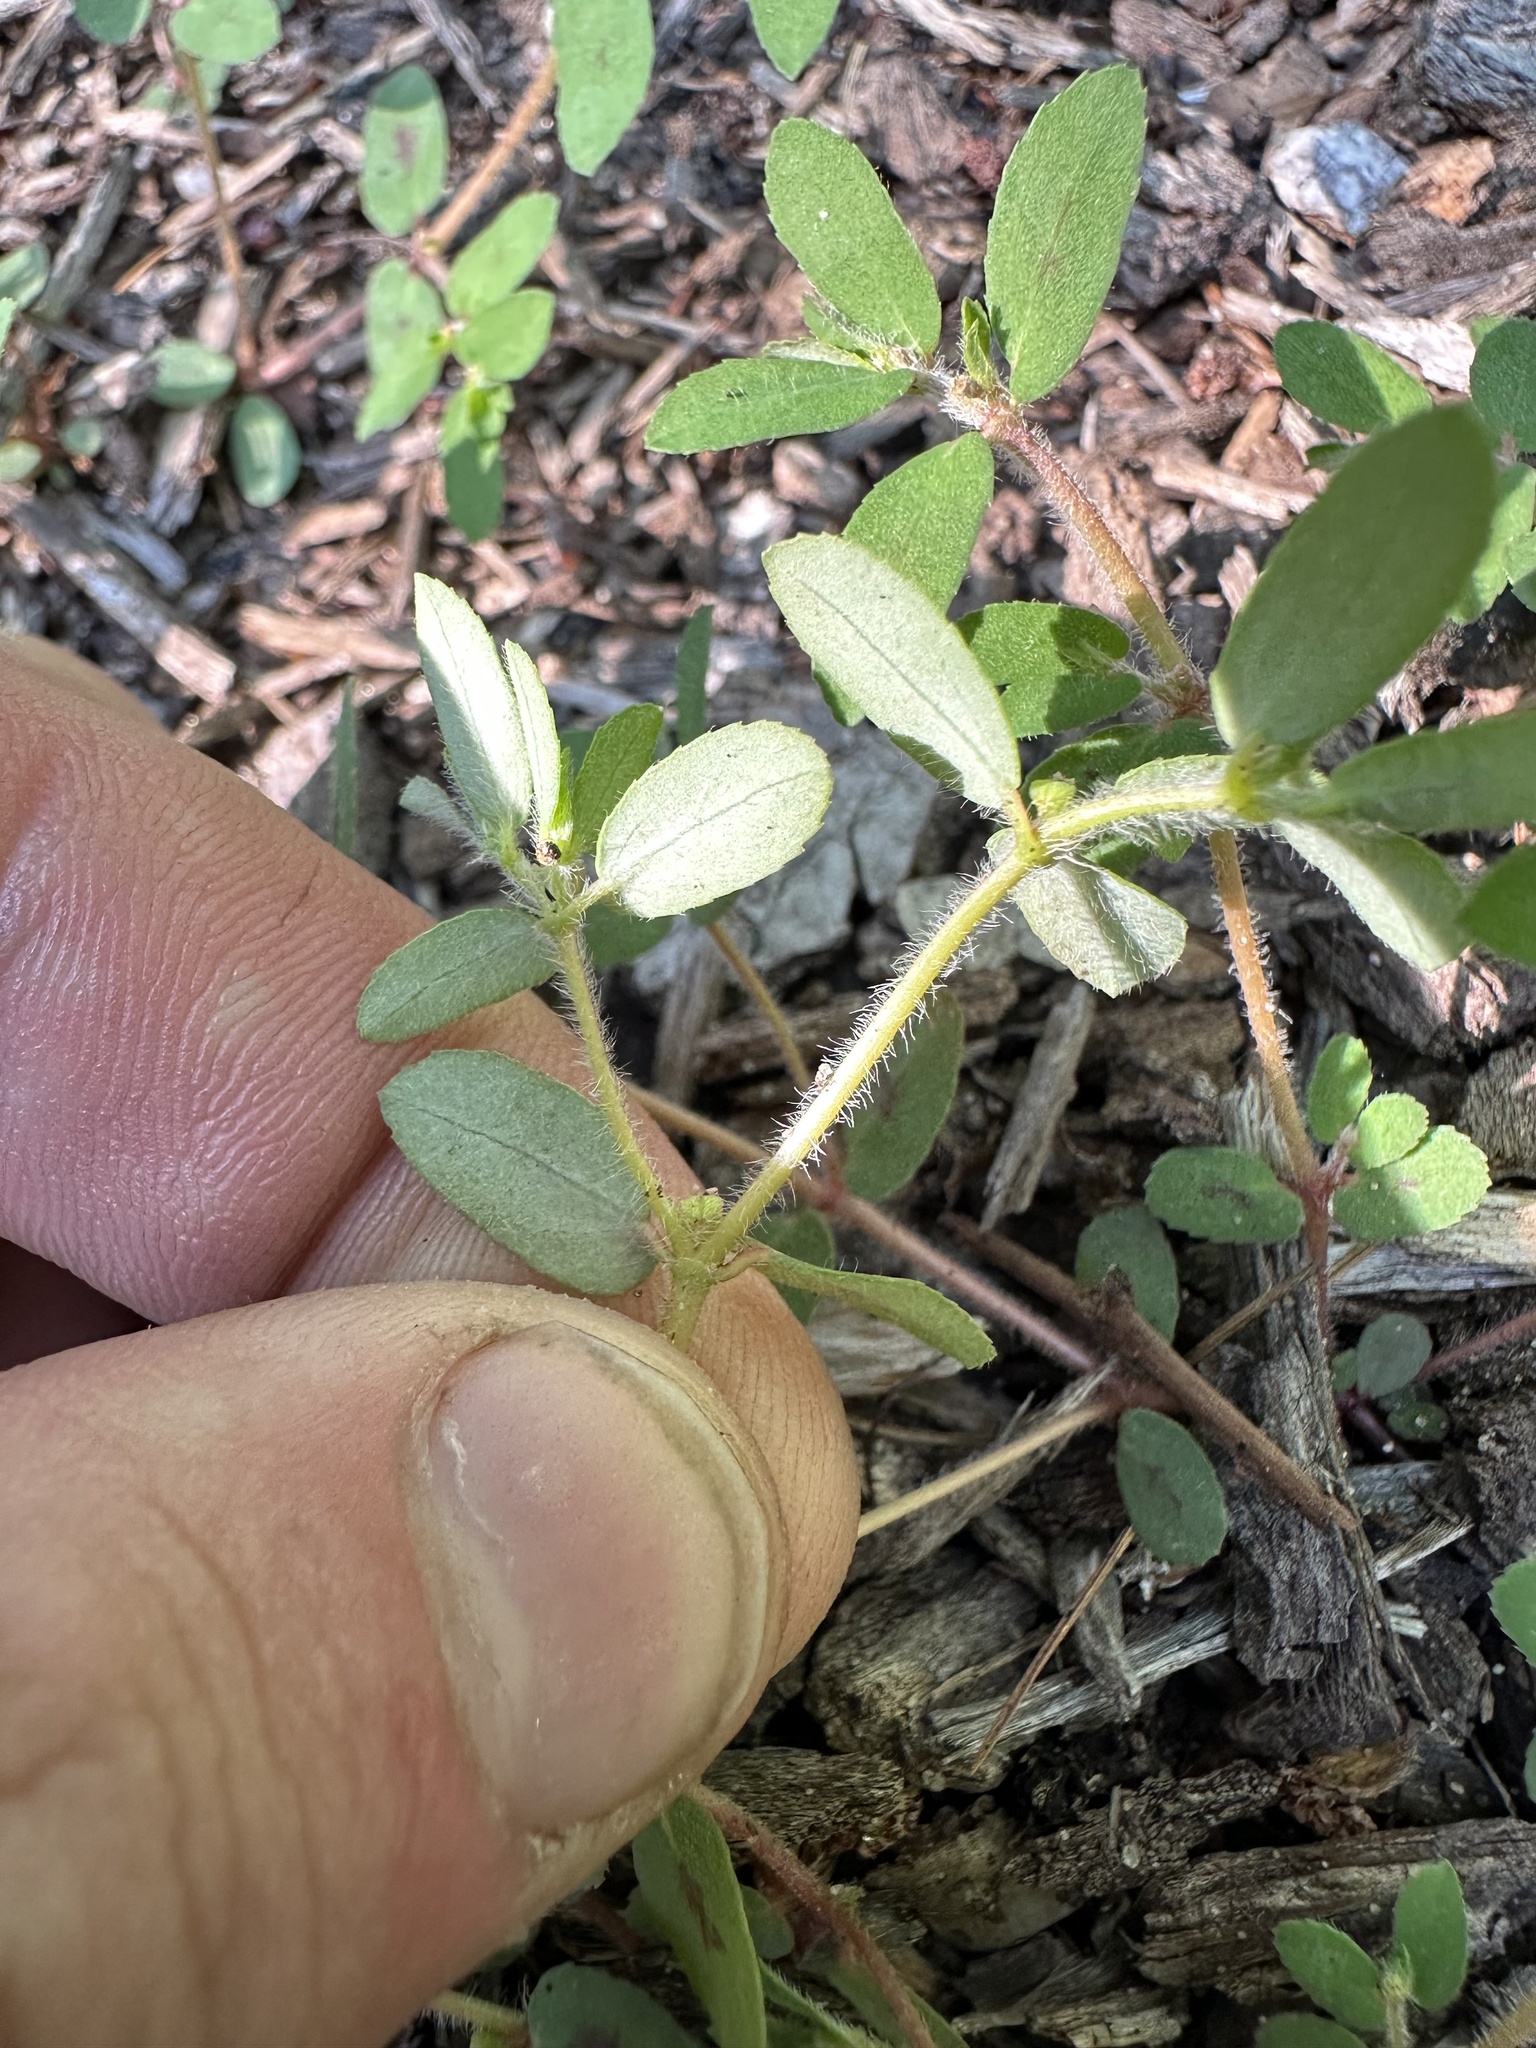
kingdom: Plantae
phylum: Tracheophyta
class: Magnoliopsida
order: Malpighiales
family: Euphorbiaceae
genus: Euphorbia
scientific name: Euphorbia maculata
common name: Spotted spurge
